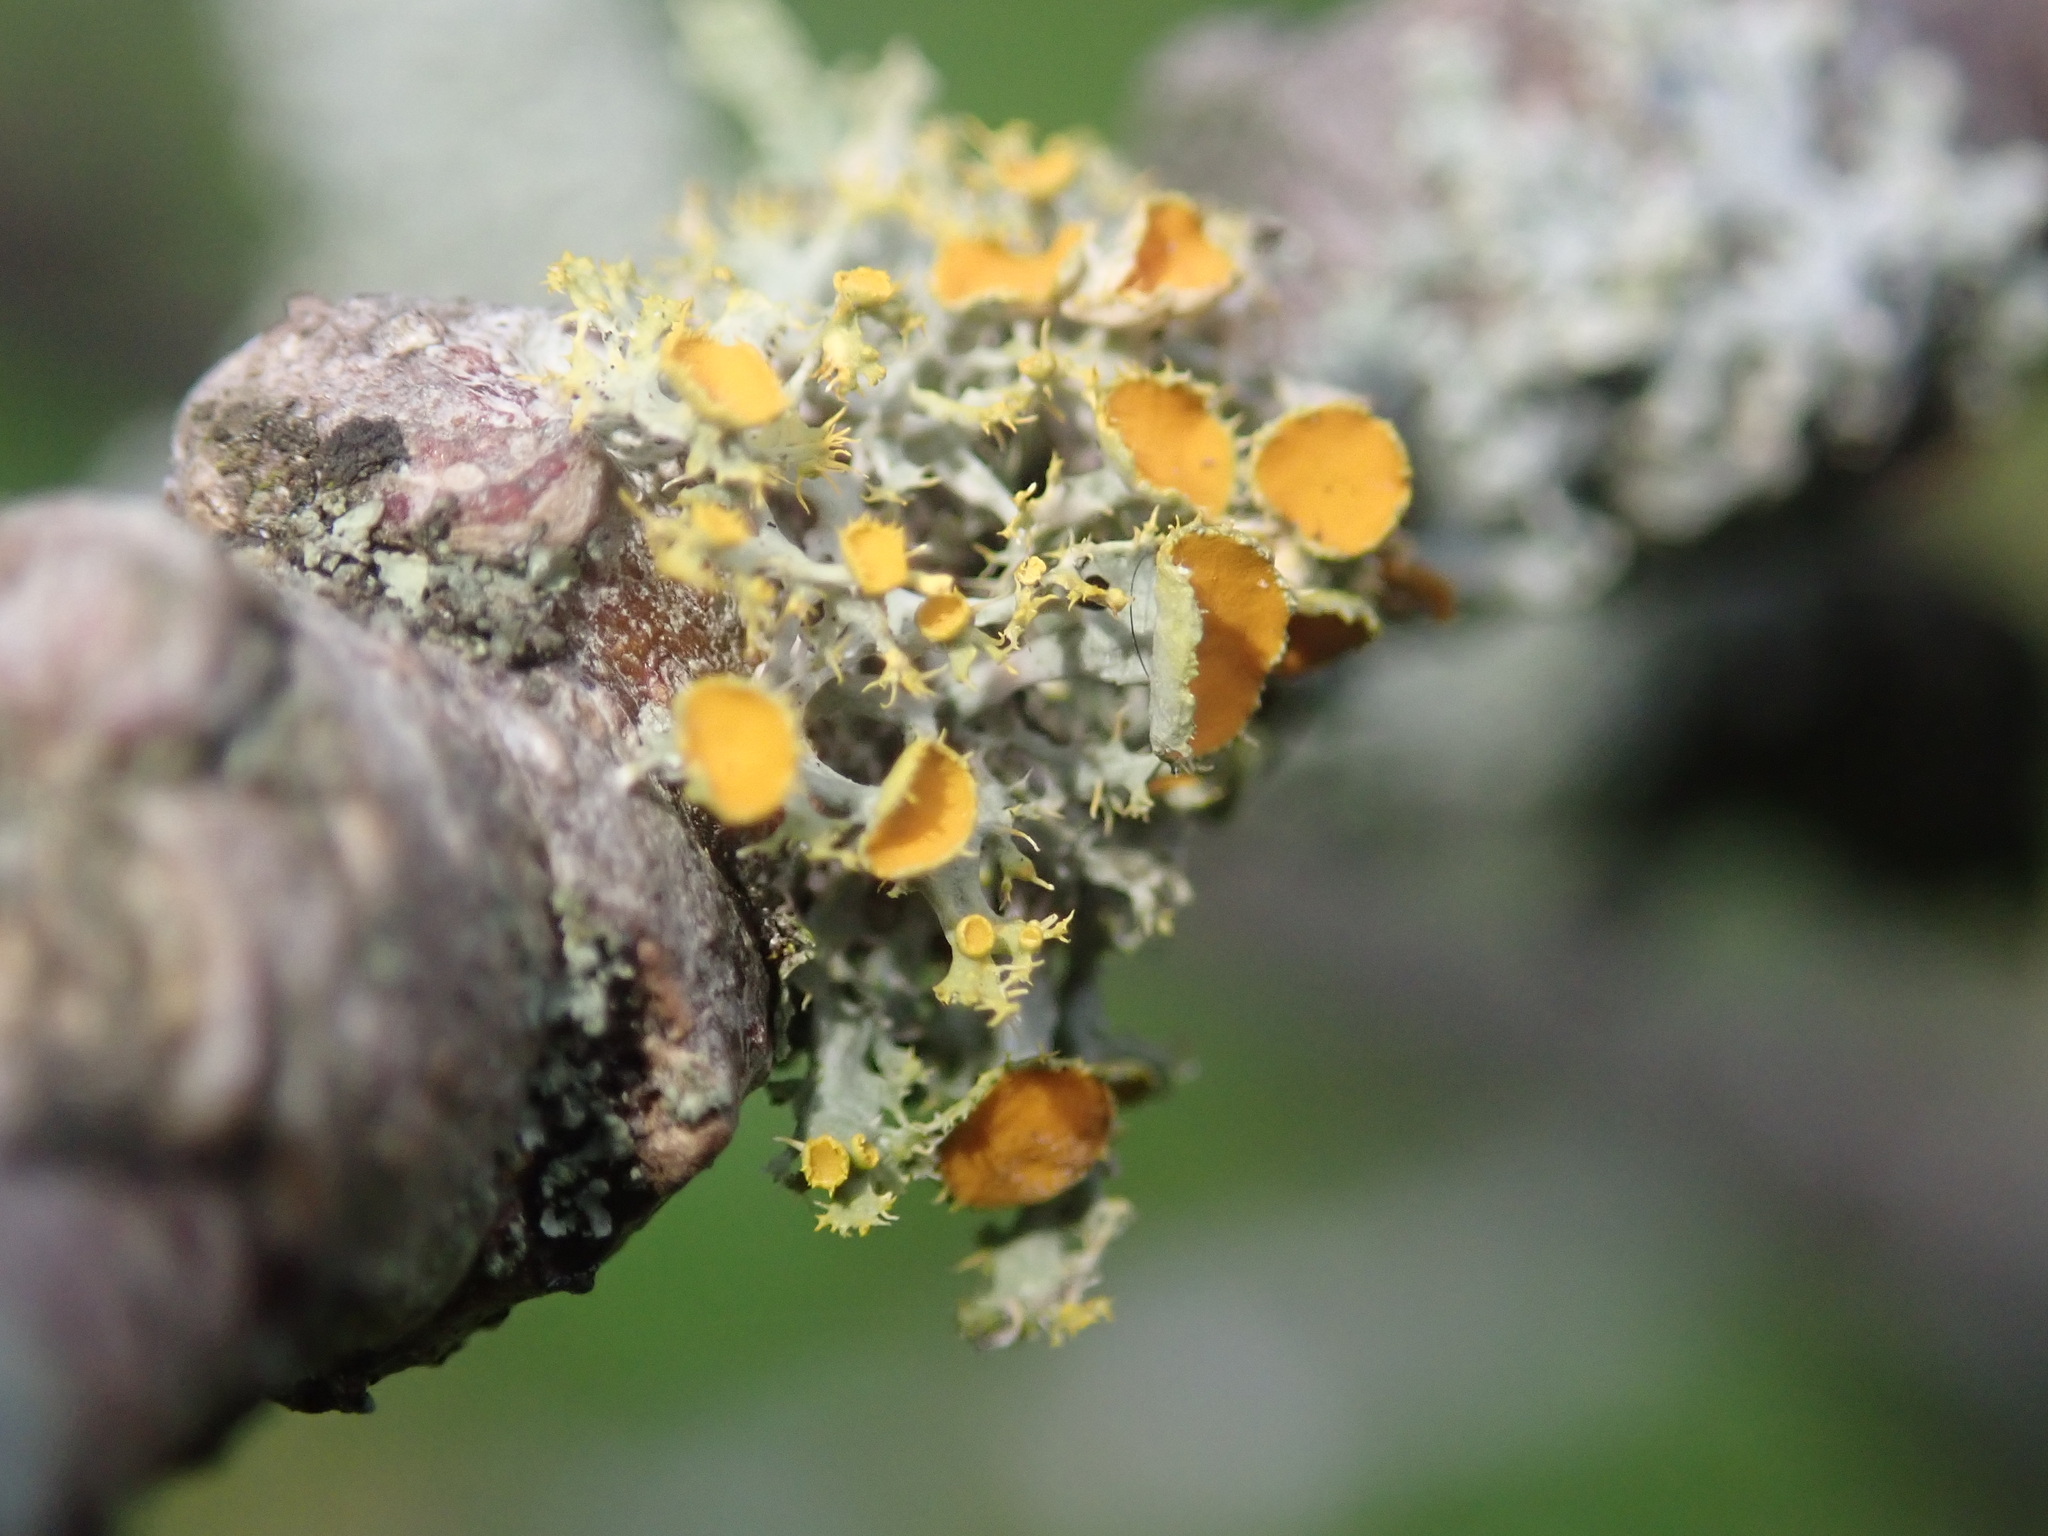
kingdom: Fungi
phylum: Ascomycota
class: Lecanoromycetes
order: Teloschistales
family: Teloschistaceae
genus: Niorma
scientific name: Niorma chrysophthalma
